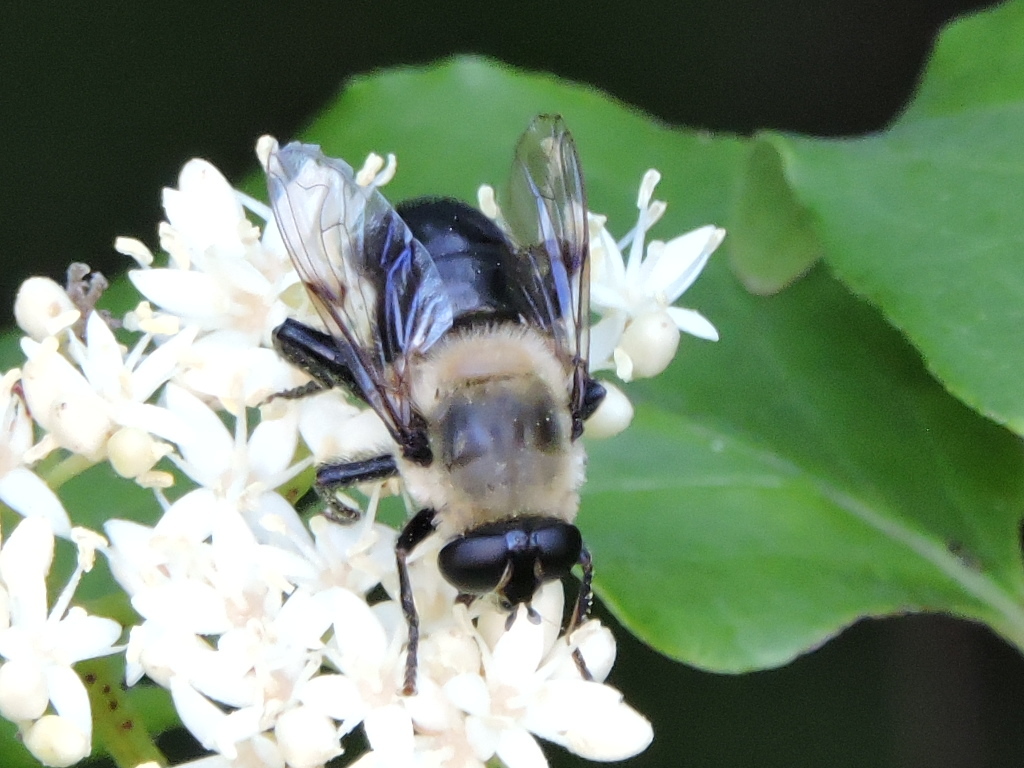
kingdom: Animalia
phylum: Arthropoda
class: Insecta
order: Diptera
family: Syrphidae
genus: Imatisma
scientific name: Imatisma bautias
